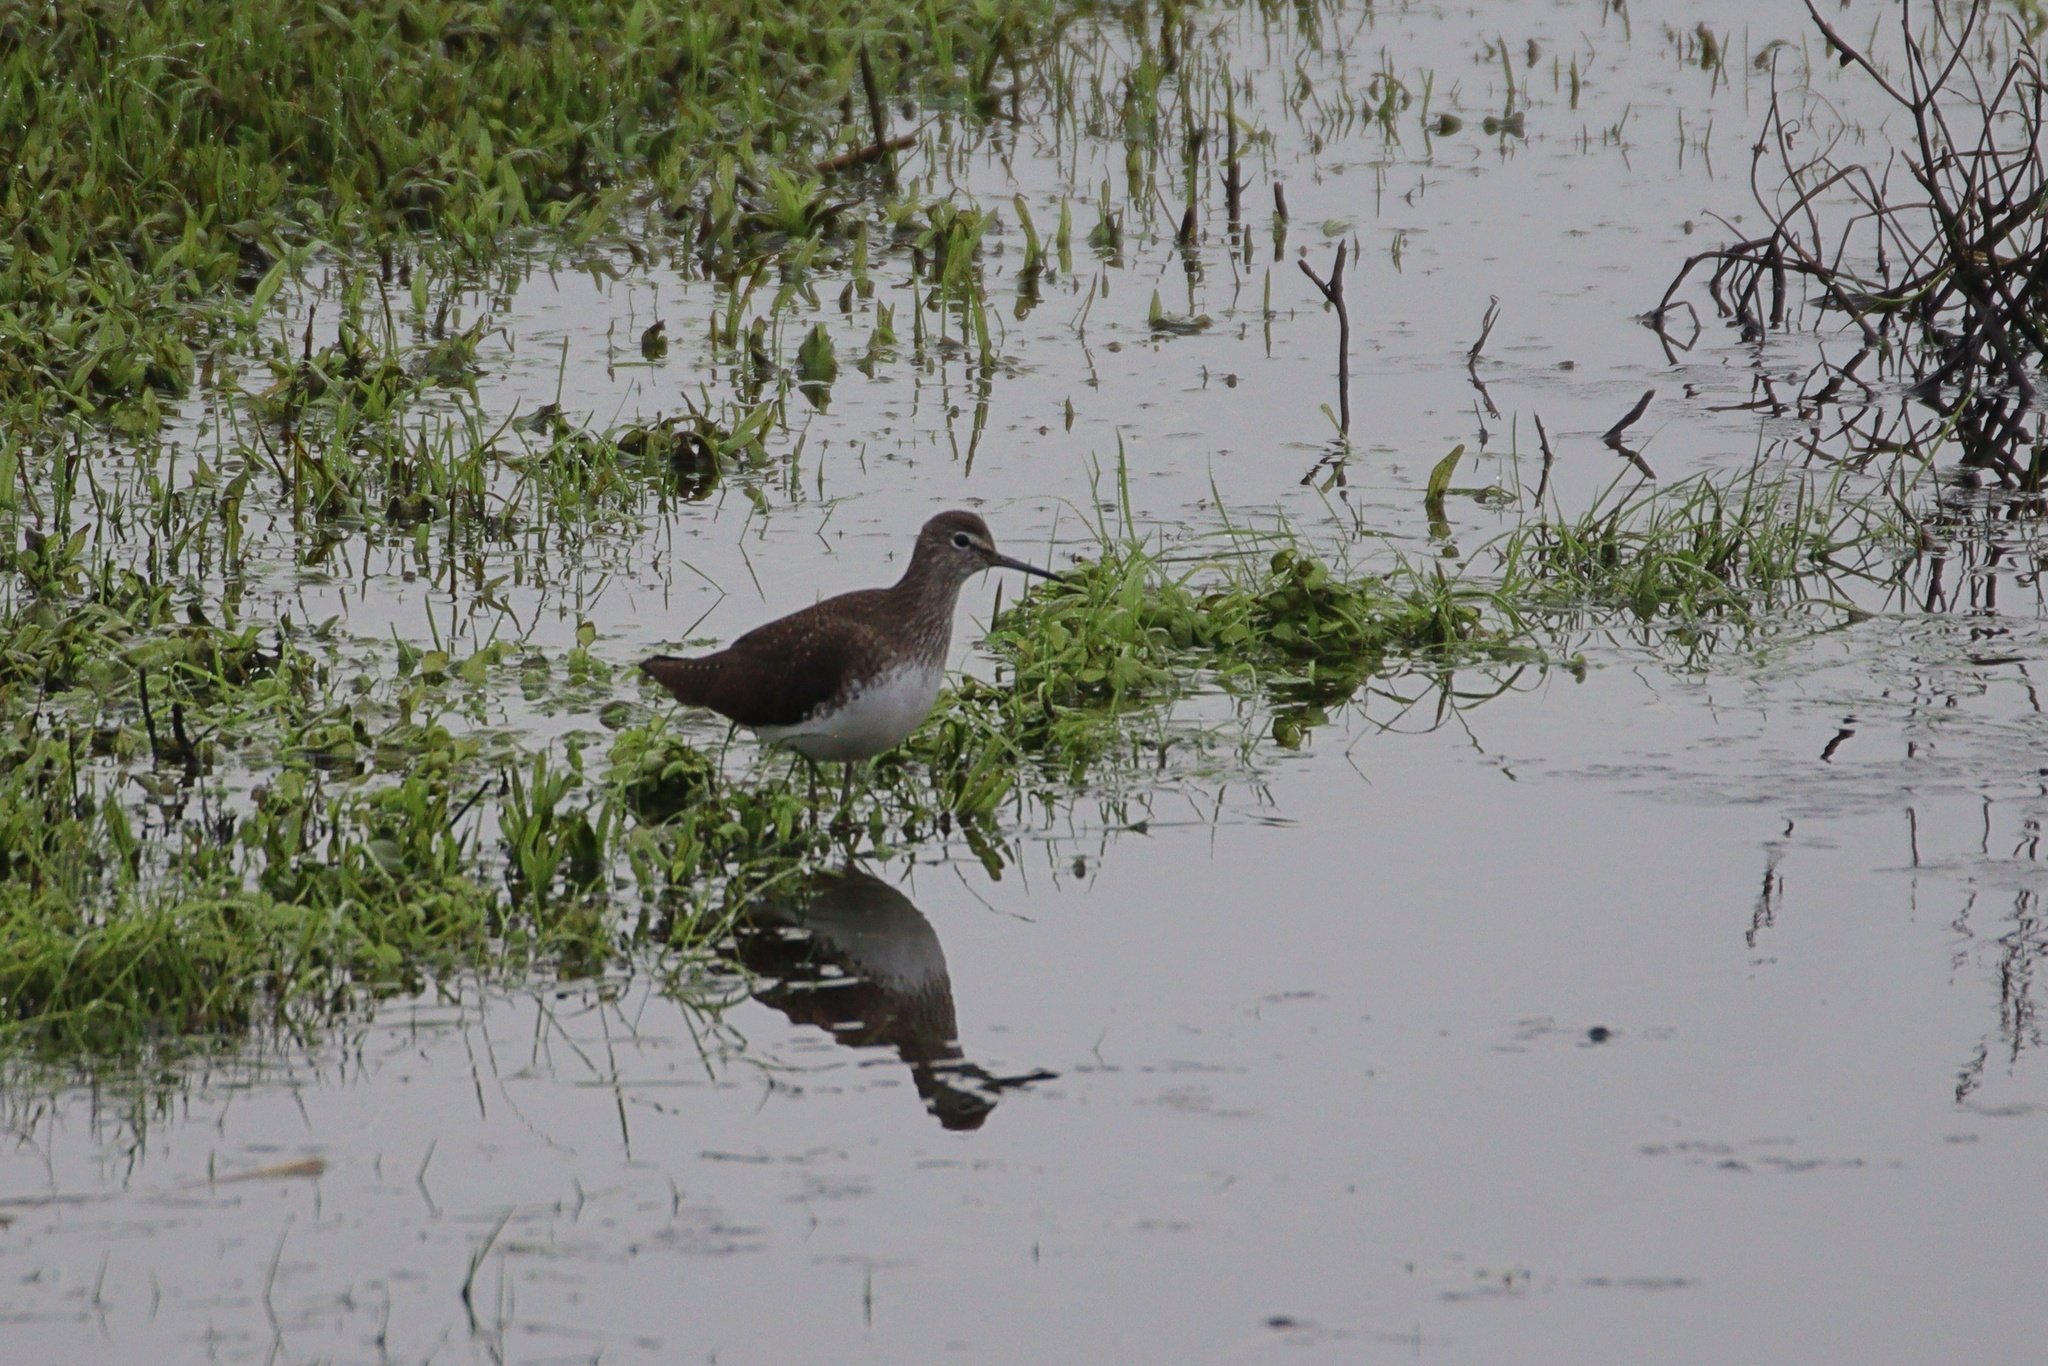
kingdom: Animalia
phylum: Chordata
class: Aves
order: Charadriiformes
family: Scolopacidae
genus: Tringa
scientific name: Tringa ochropus
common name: Green sandpiper
